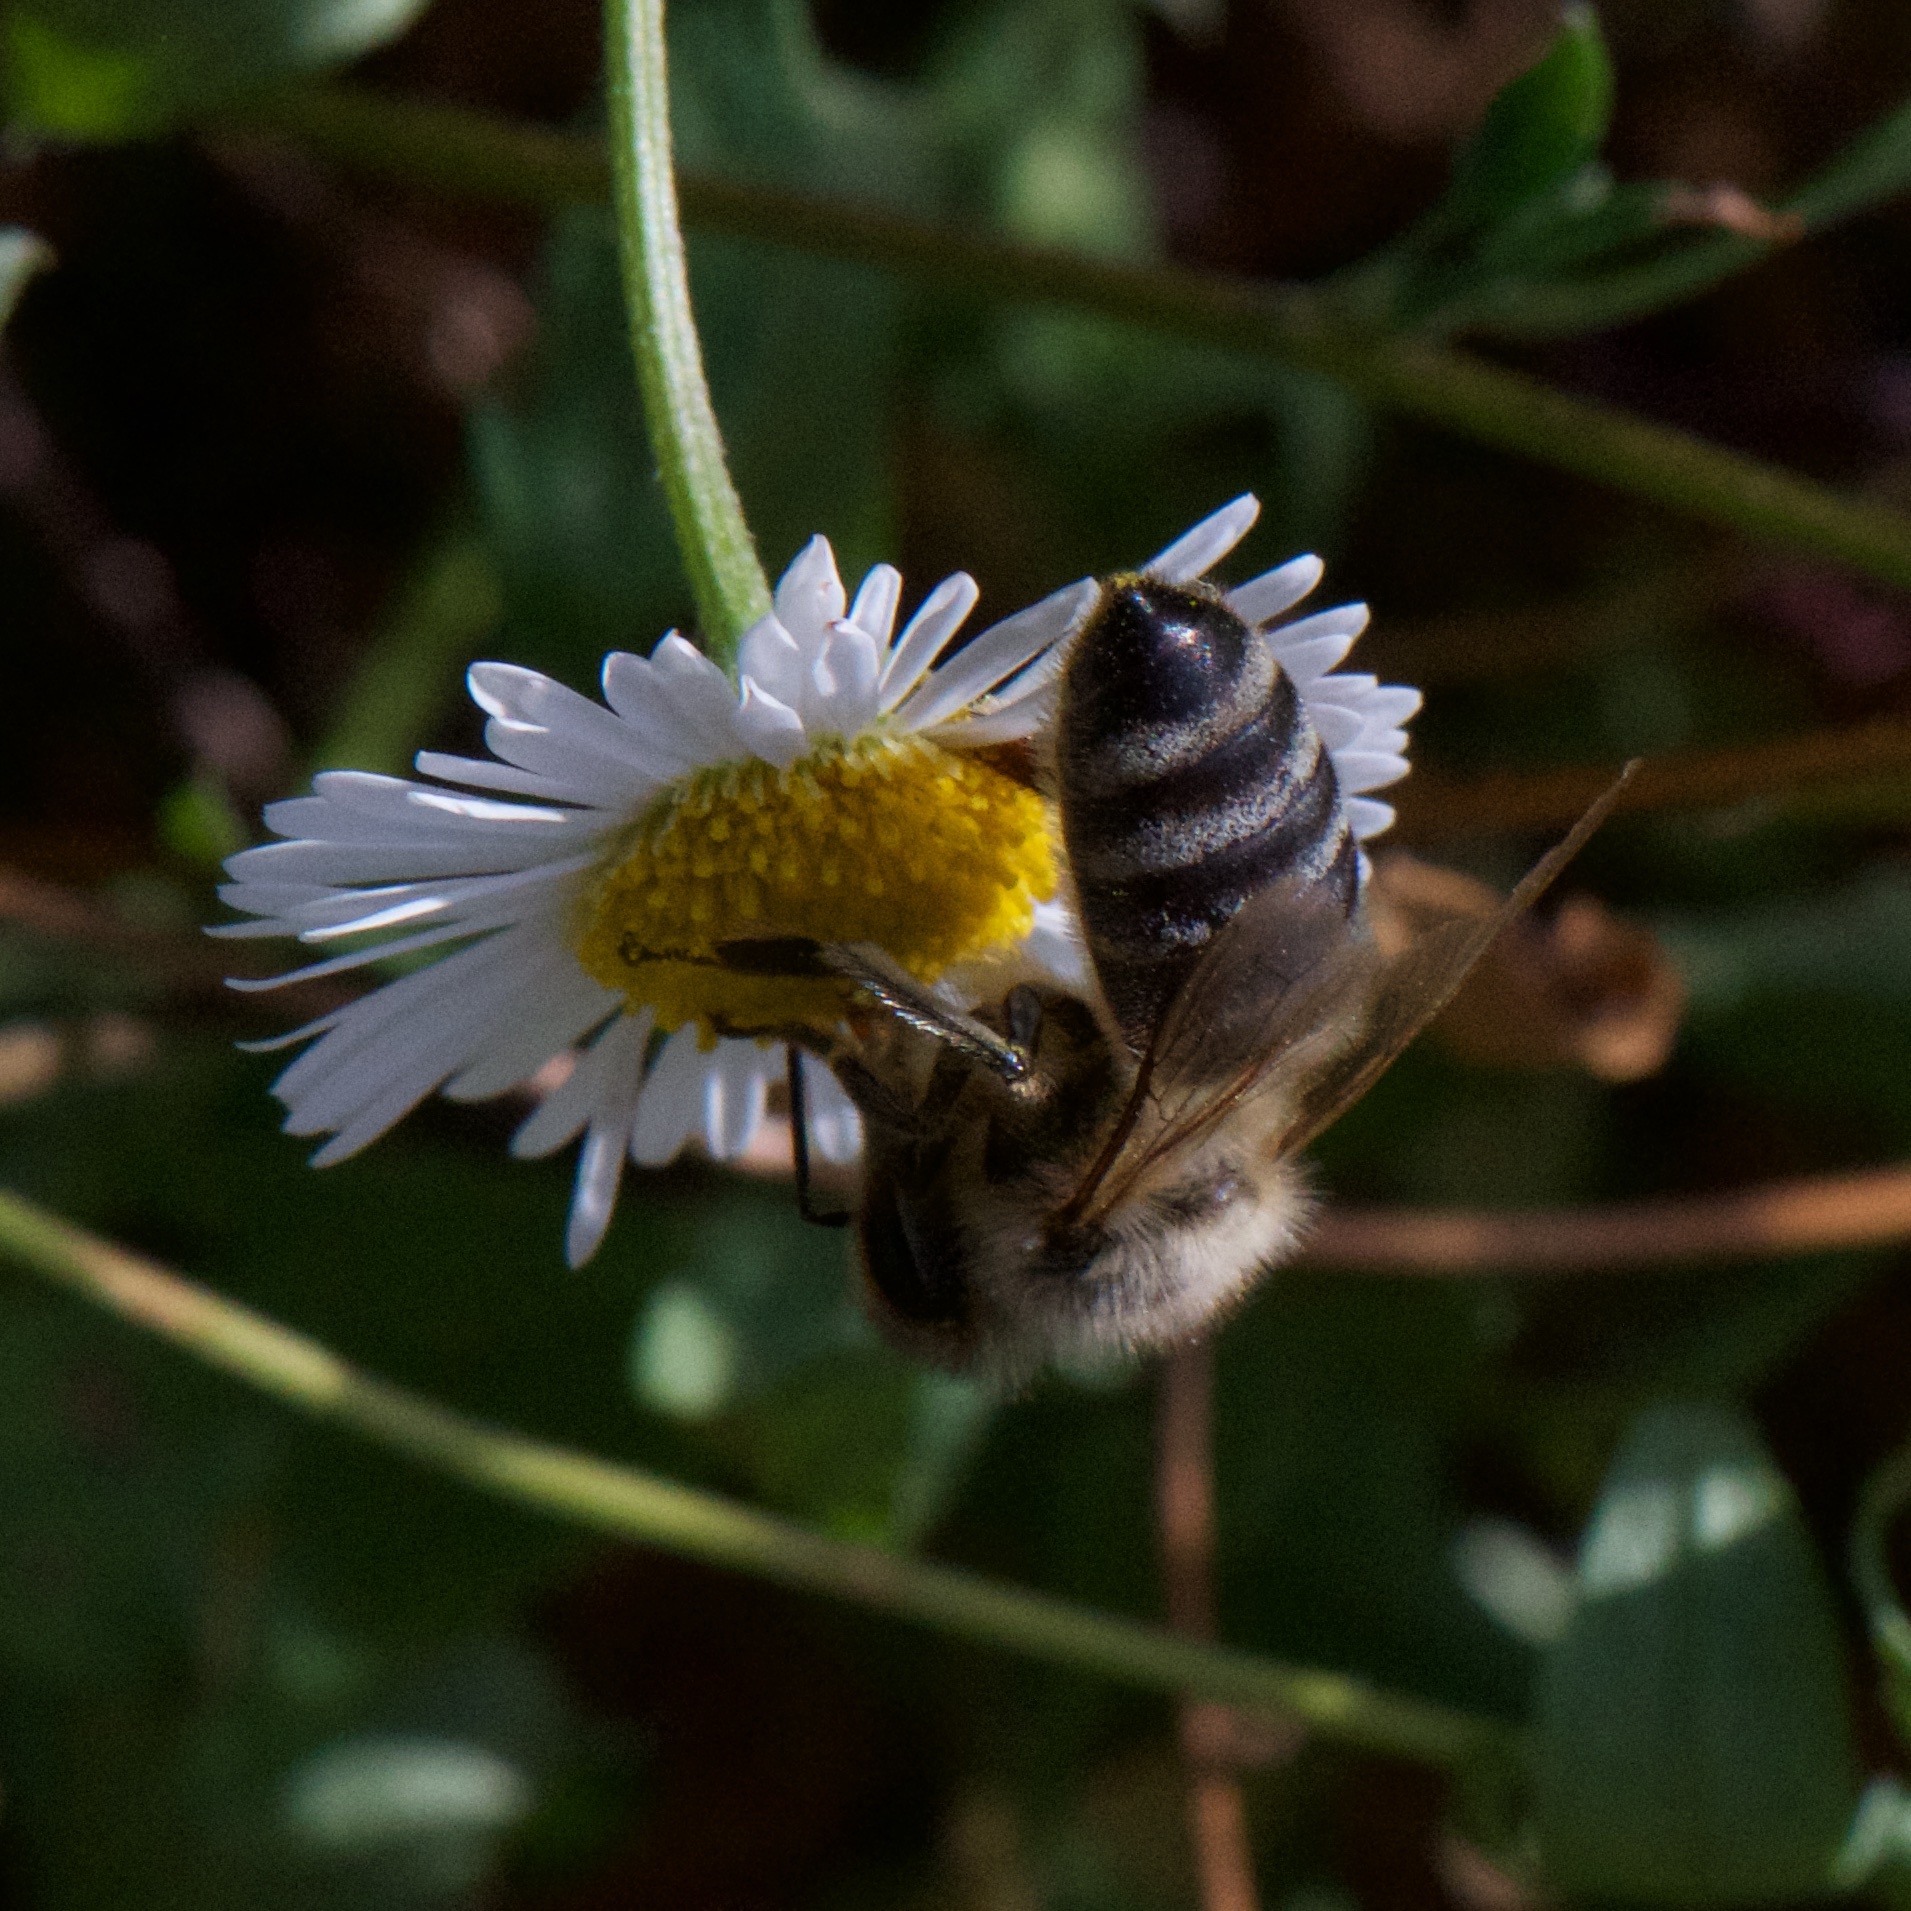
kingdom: Animalia
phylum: Arthropoda
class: Insecta
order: Hymenoptera
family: Apidae
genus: Apis
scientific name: Apis mellifera
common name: Honey bee
